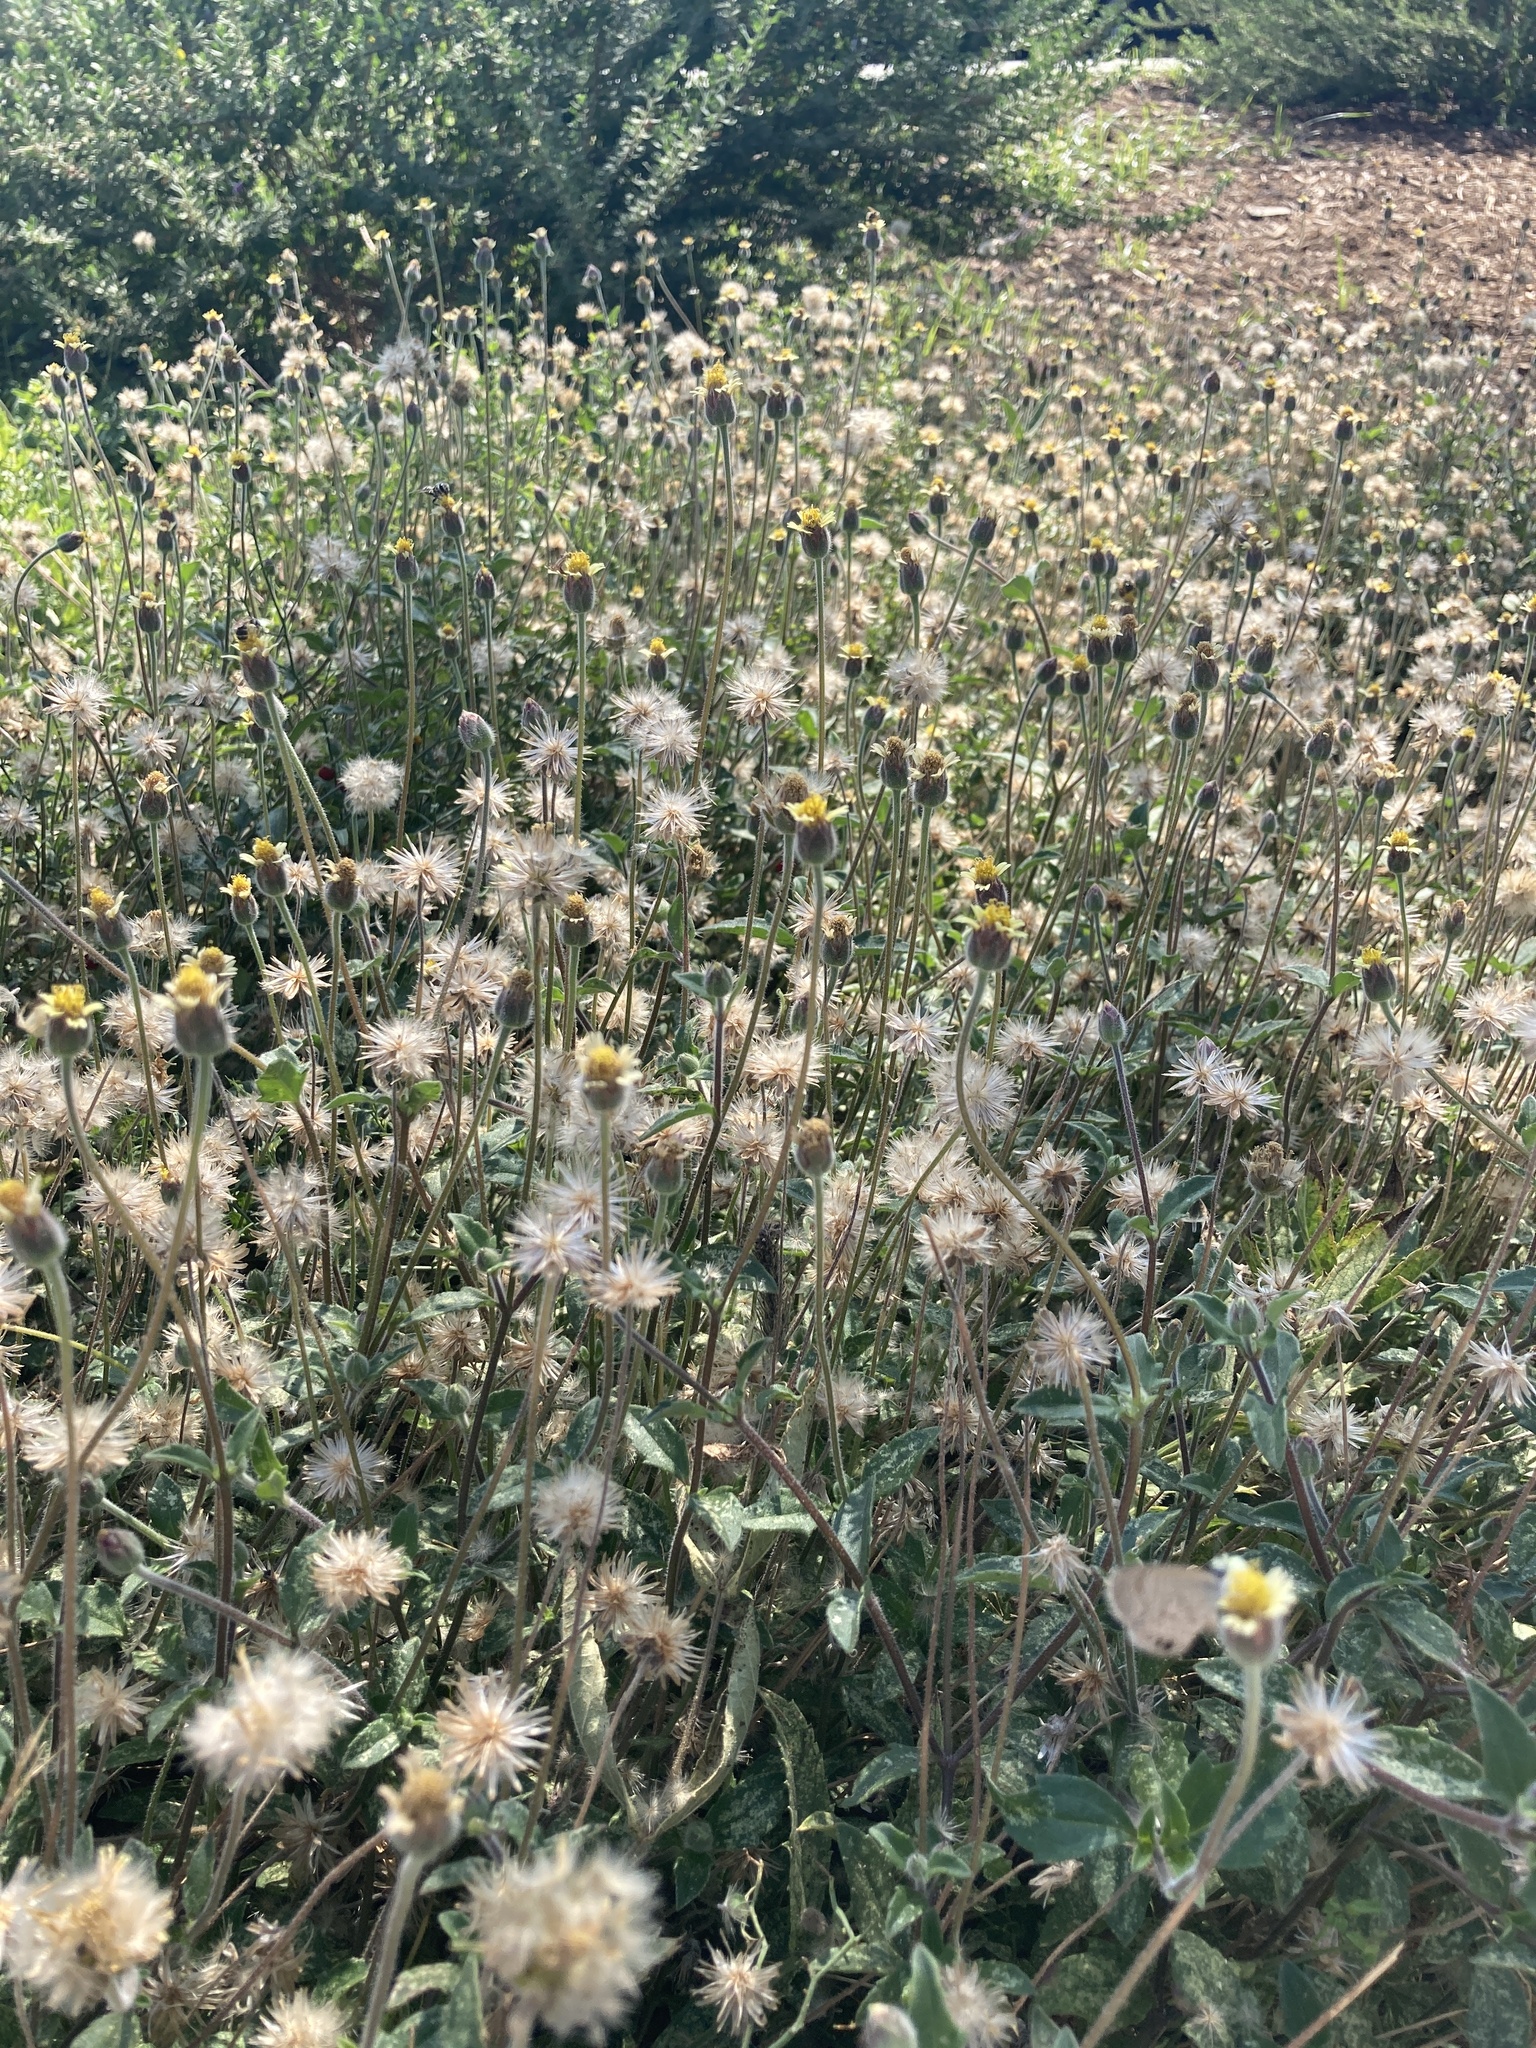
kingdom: Plantae
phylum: Tracheophyta
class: Magnoliopsida
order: Asterales
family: Asteraceae
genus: Tridax
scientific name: Tridax procumbens
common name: Coatbuttons
